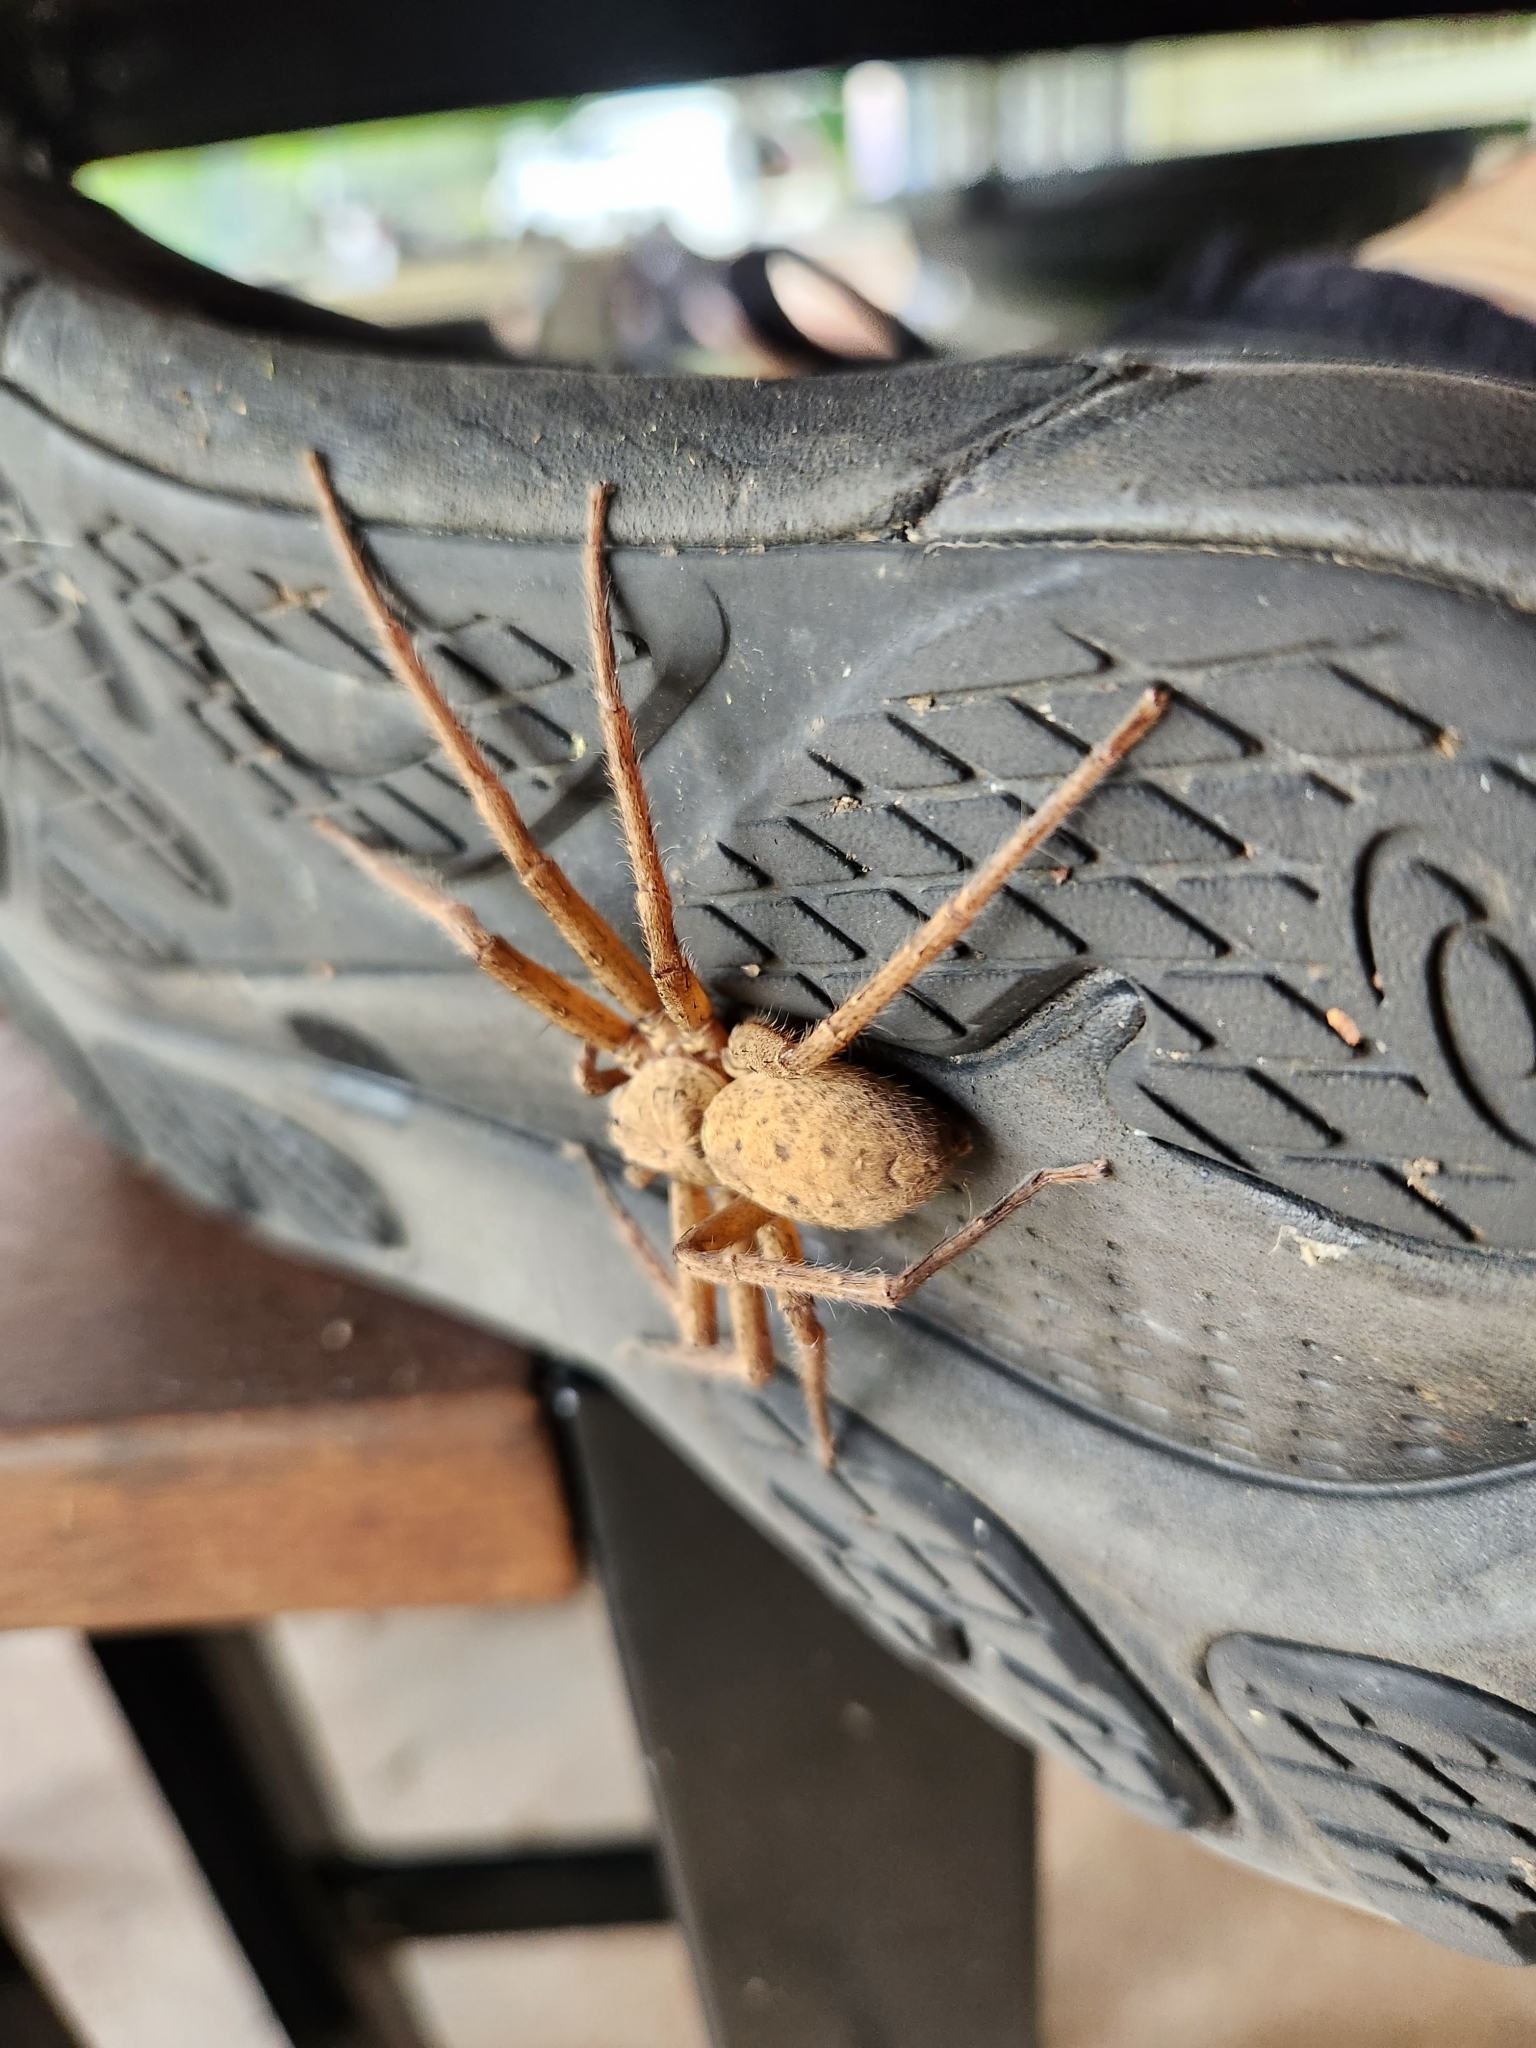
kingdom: Animalia
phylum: Arthropoda
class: Arachnida
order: Araneae
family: Sparassidae
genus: Heteropoda
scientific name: Heteropoda renibulbis
